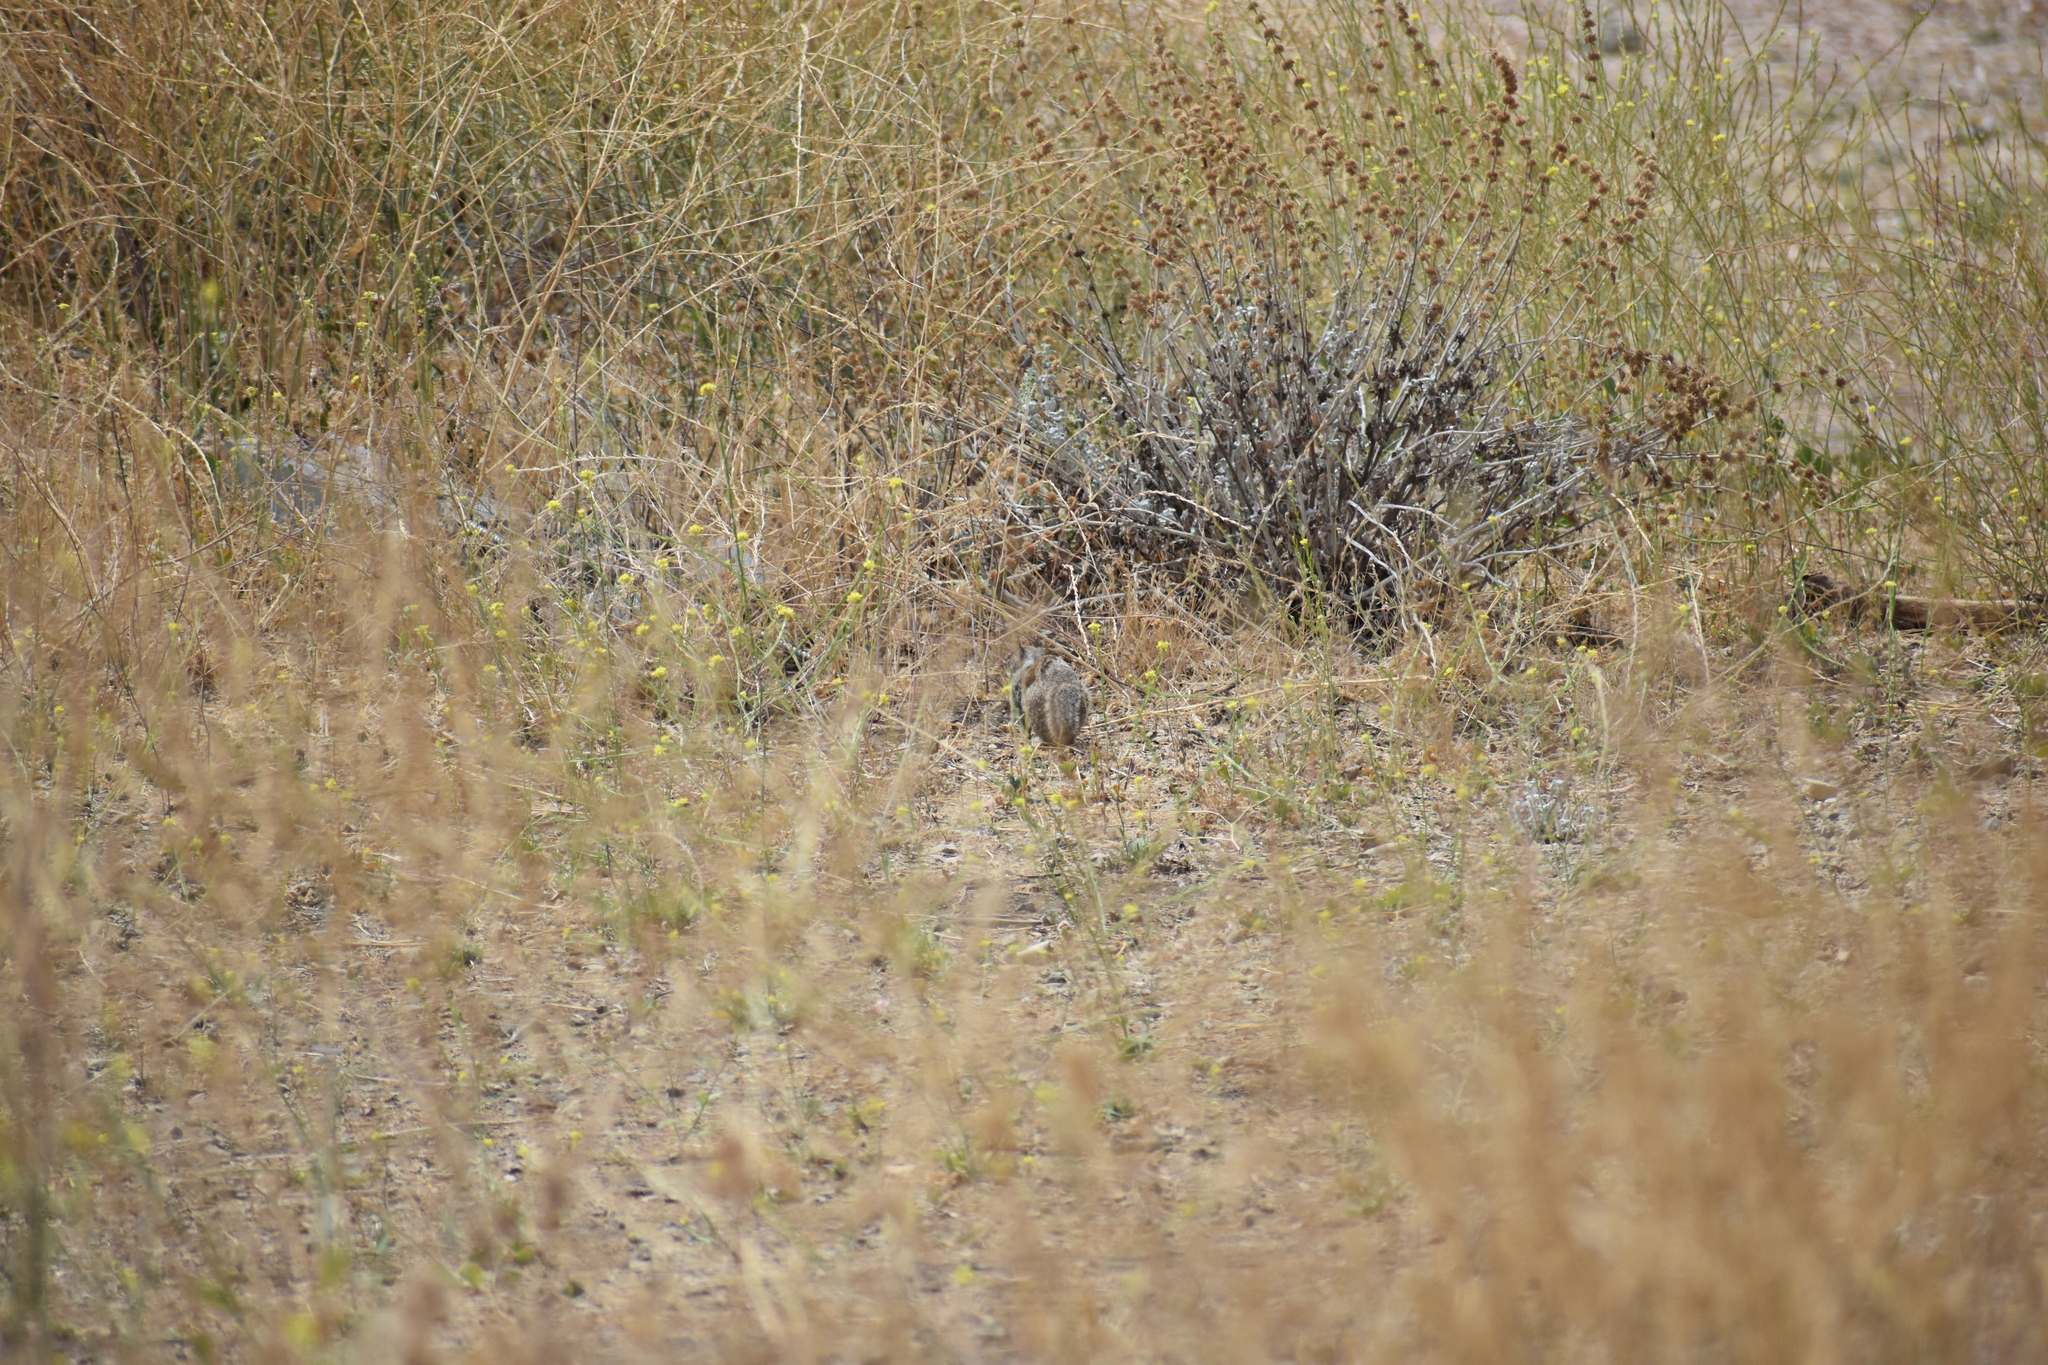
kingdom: Animalia
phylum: Chordata
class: Mammalia
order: Rodentia
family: Sciuridae
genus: Otospermophilus
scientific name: Otospermophilus beecheyi
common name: California ground squirrel
